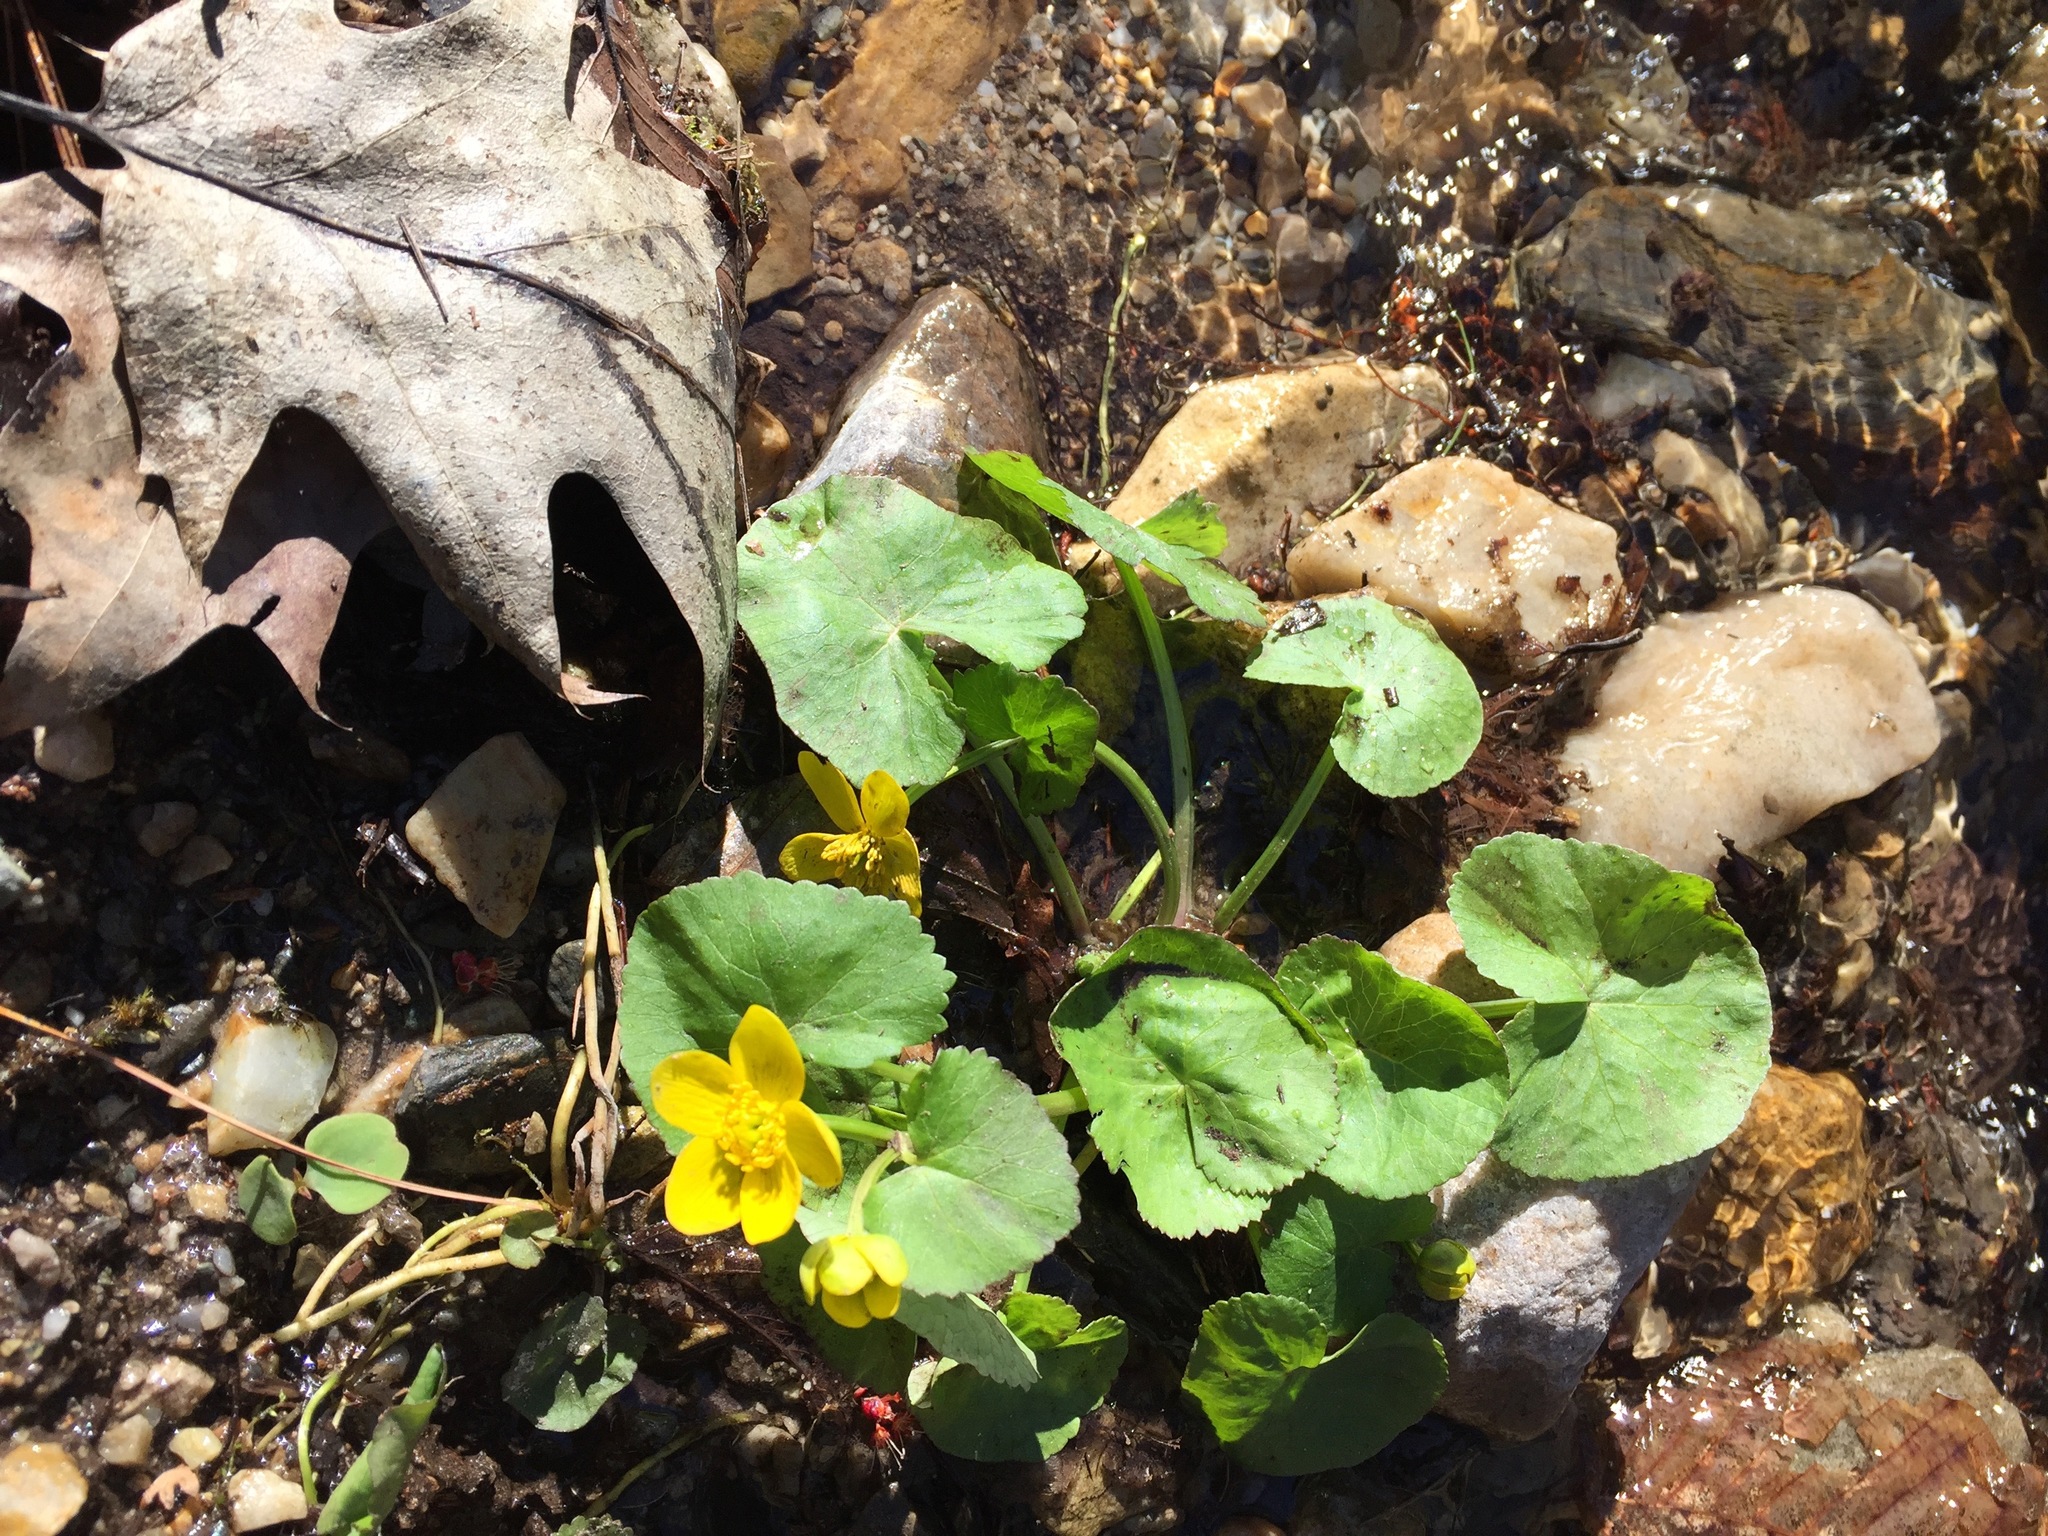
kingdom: Plantae
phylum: Tracheophyta
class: Magnoliopsida
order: Ranunculales
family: Ranunculaceae
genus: Caltha
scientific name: Caltha palustris
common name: Marsh marigold
